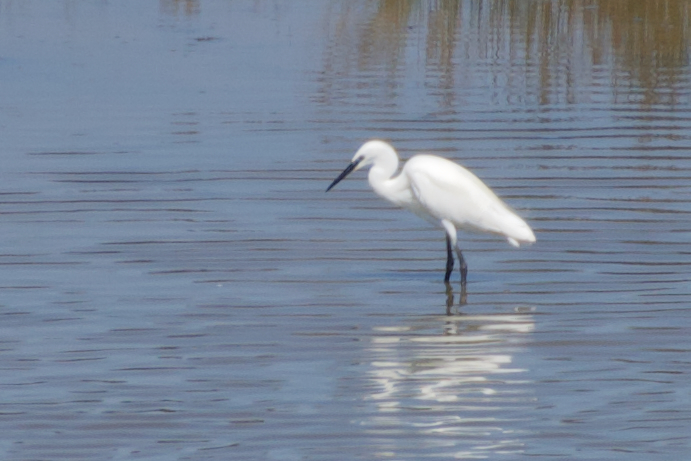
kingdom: Animalia
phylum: Chordata
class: Aves
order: Pelecaniformes
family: Ardeidae
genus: Egretta
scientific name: Egretta garzetta
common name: Little egret
